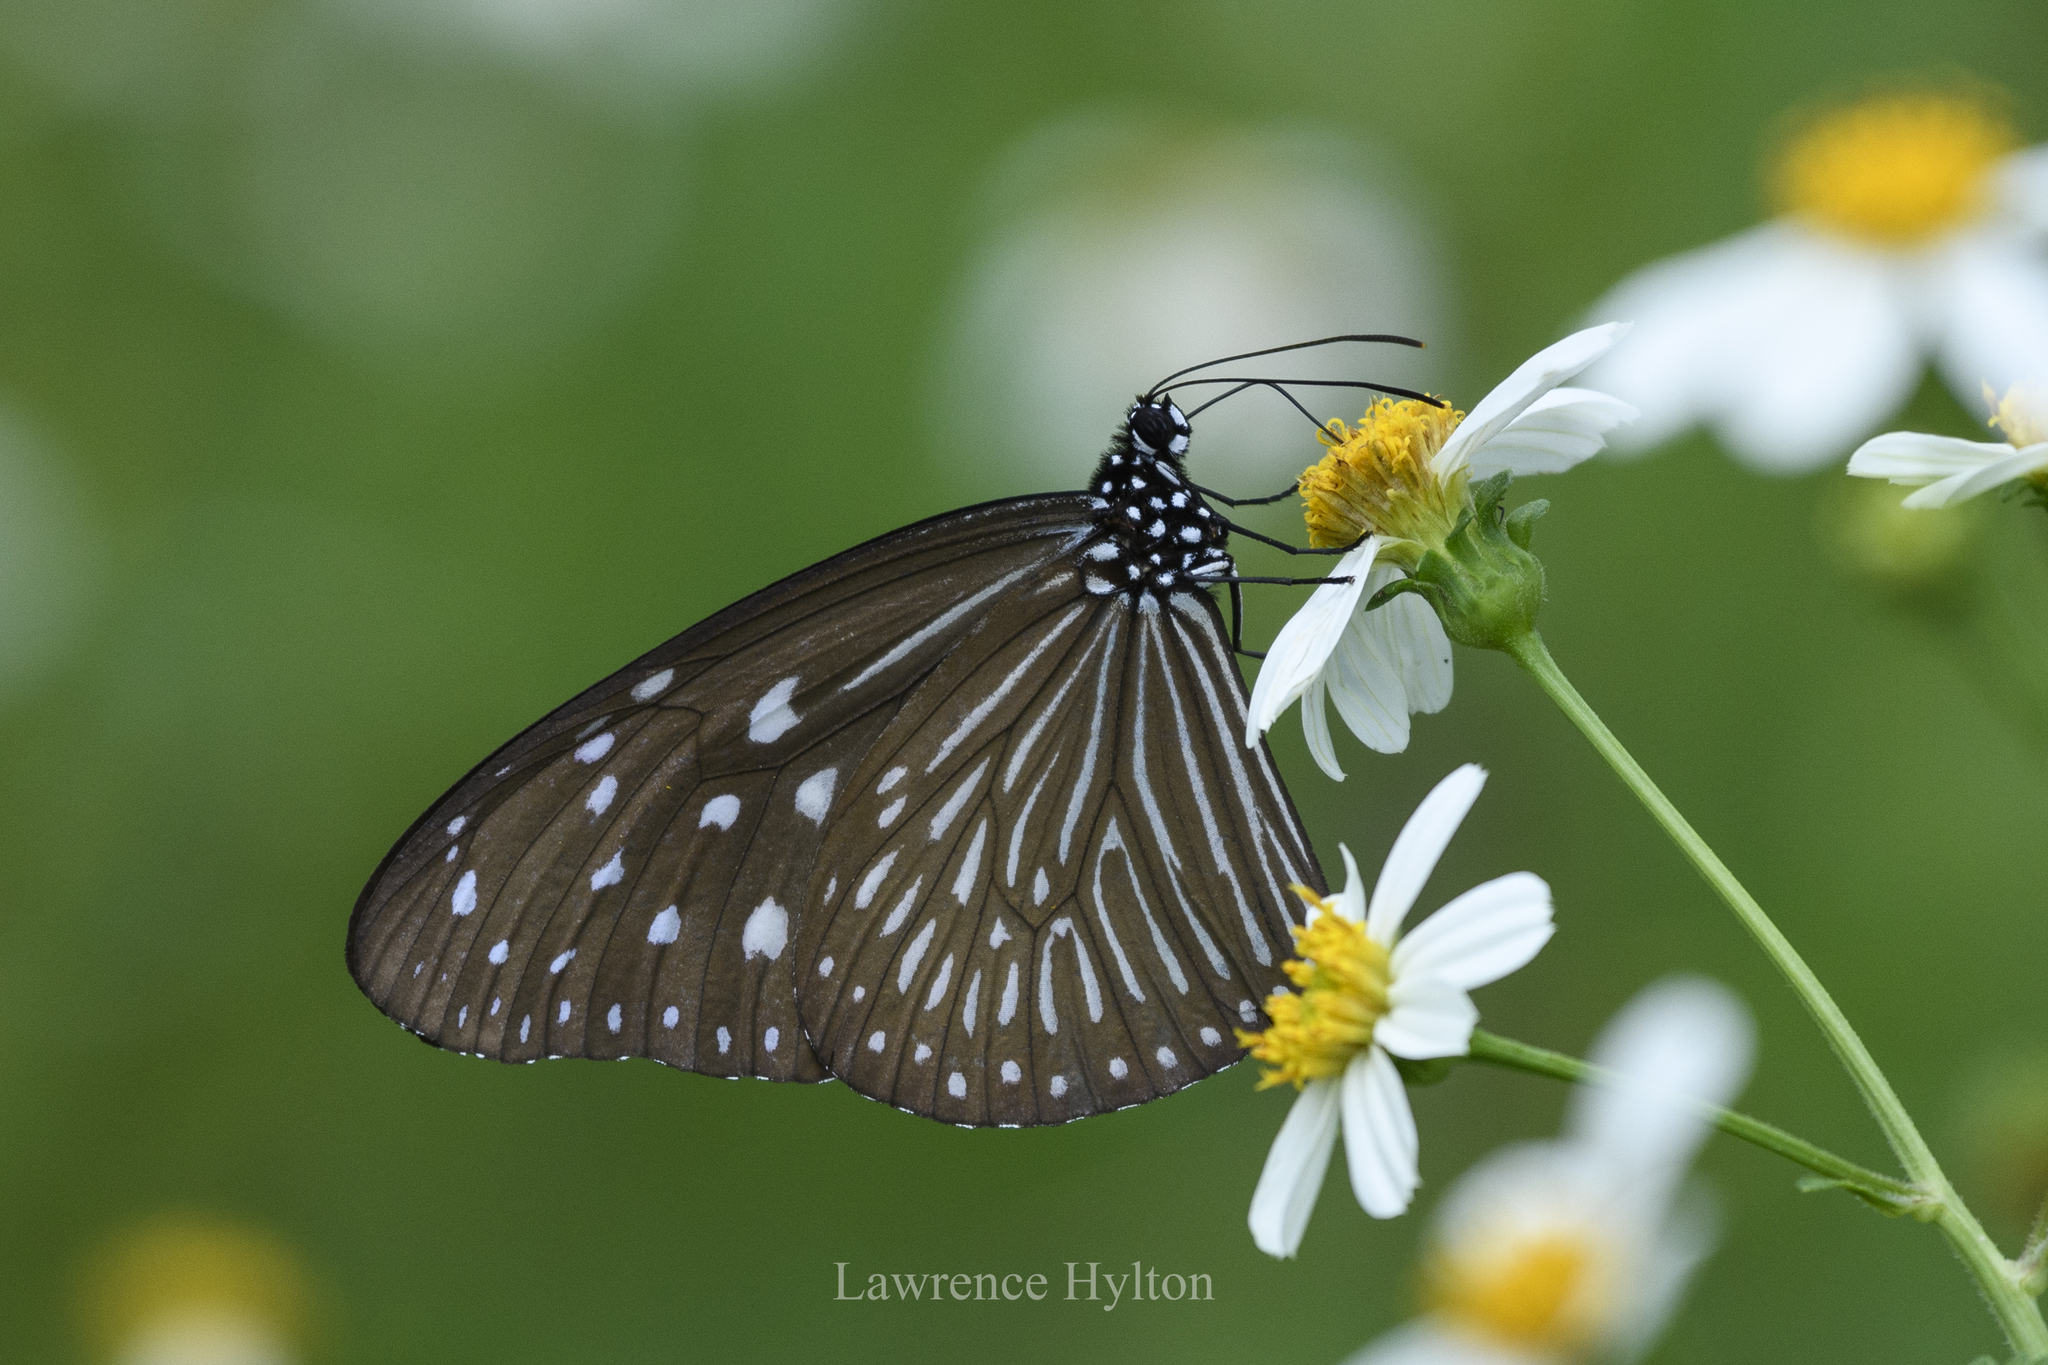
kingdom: Animalia
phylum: Arthropoda
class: Insecta
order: Lepidoptera
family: Nymphalidae
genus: Euploea
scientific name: Euploea mulciber
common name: Striped blue crow butterfly
